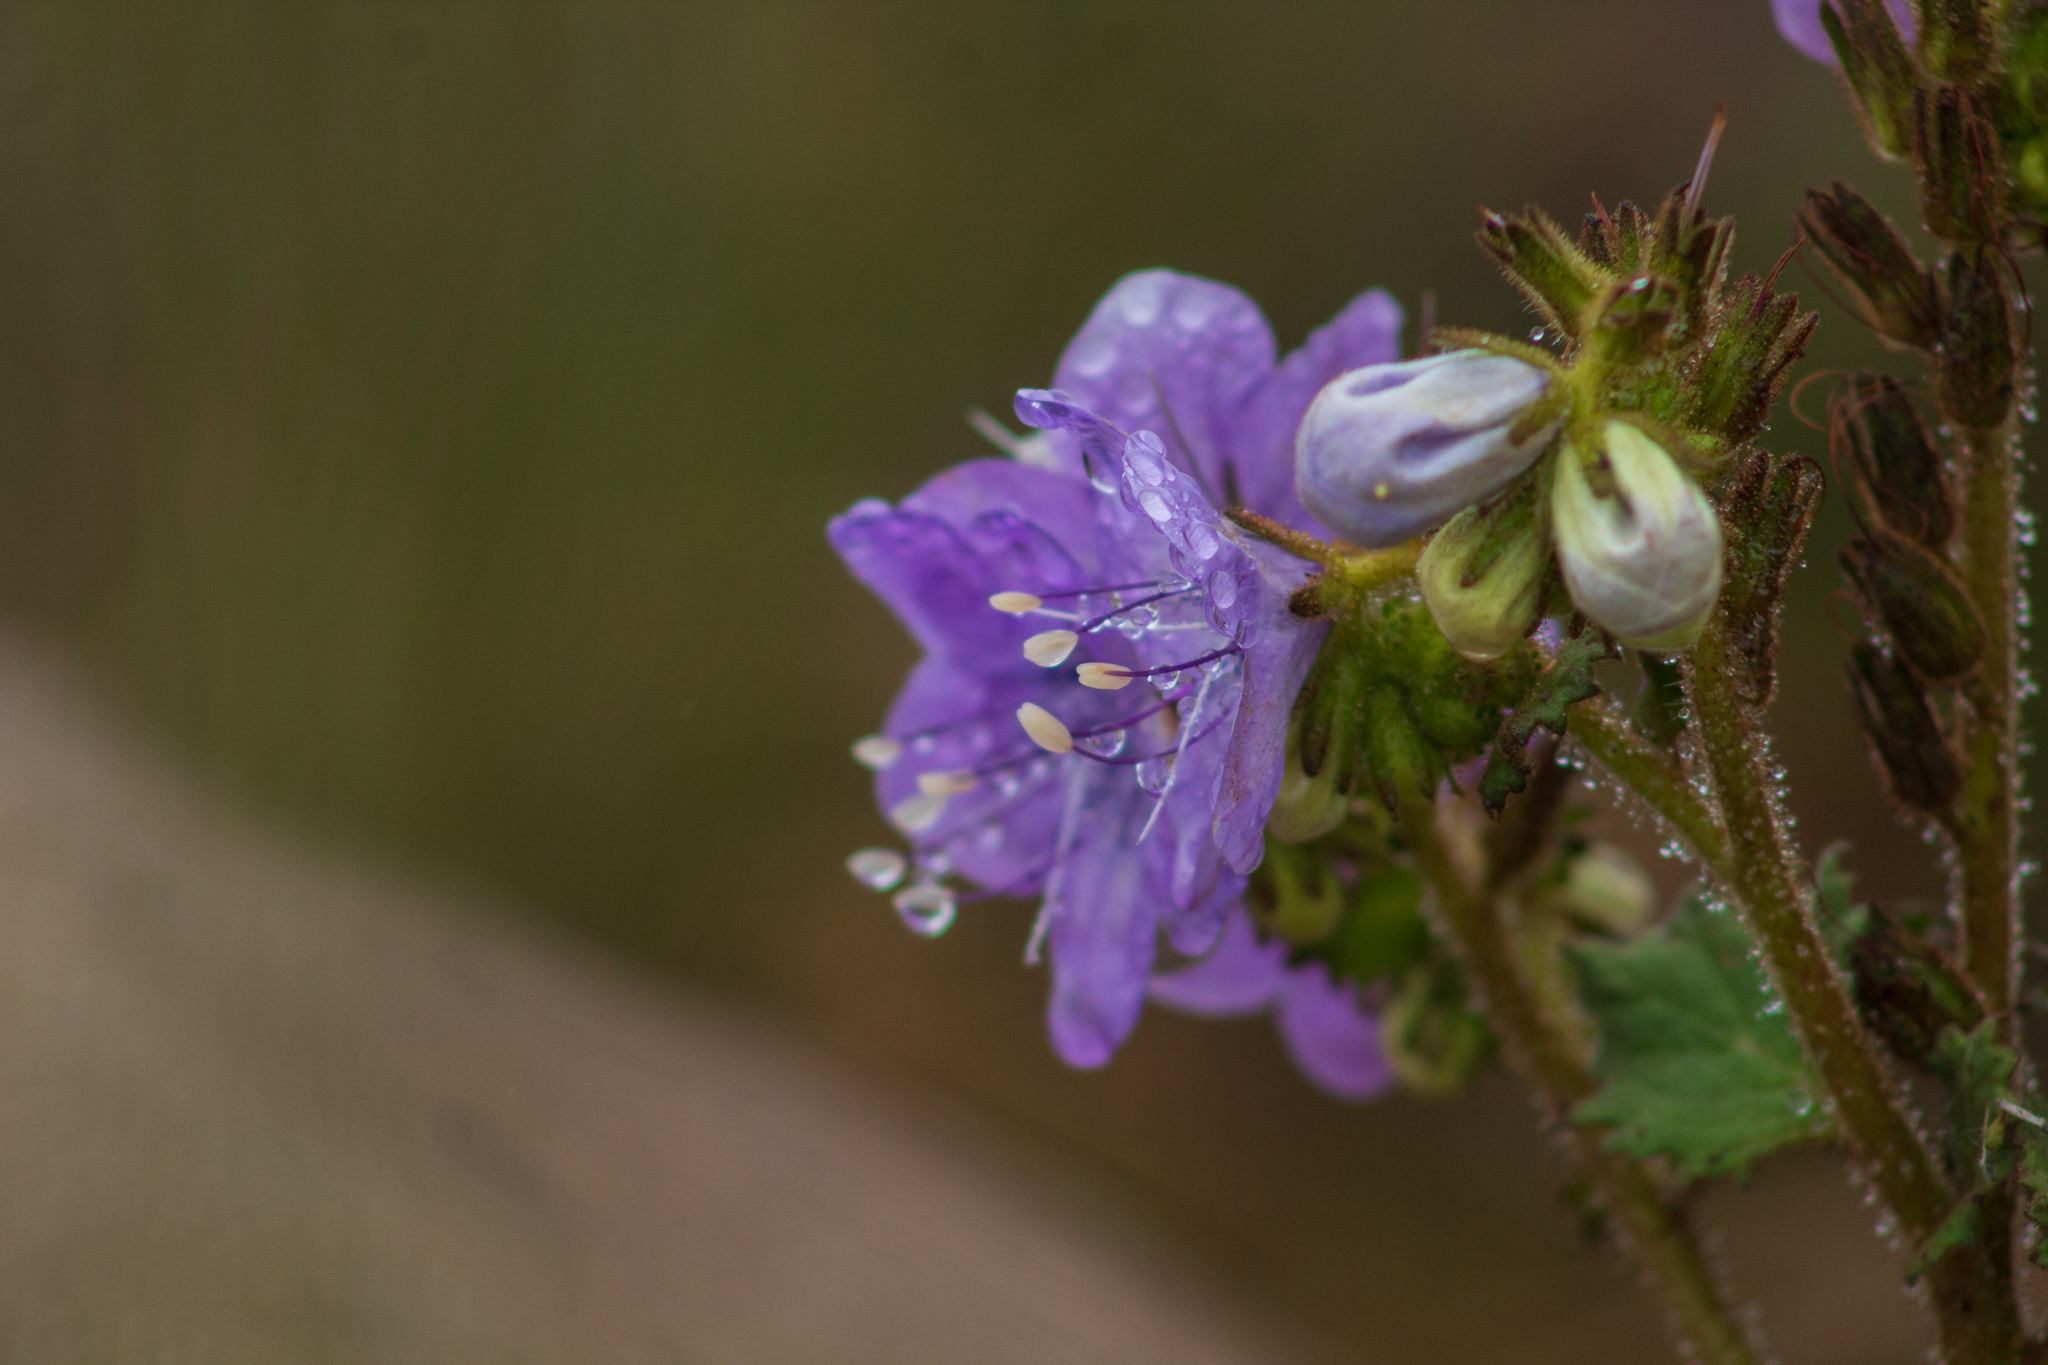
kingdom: Plantae
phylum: Tracheophyta
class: Magnoliopsida
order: Boraginales
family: Hydrophyllaceae
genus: Phacelia
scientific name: Phacelia grandiflora
